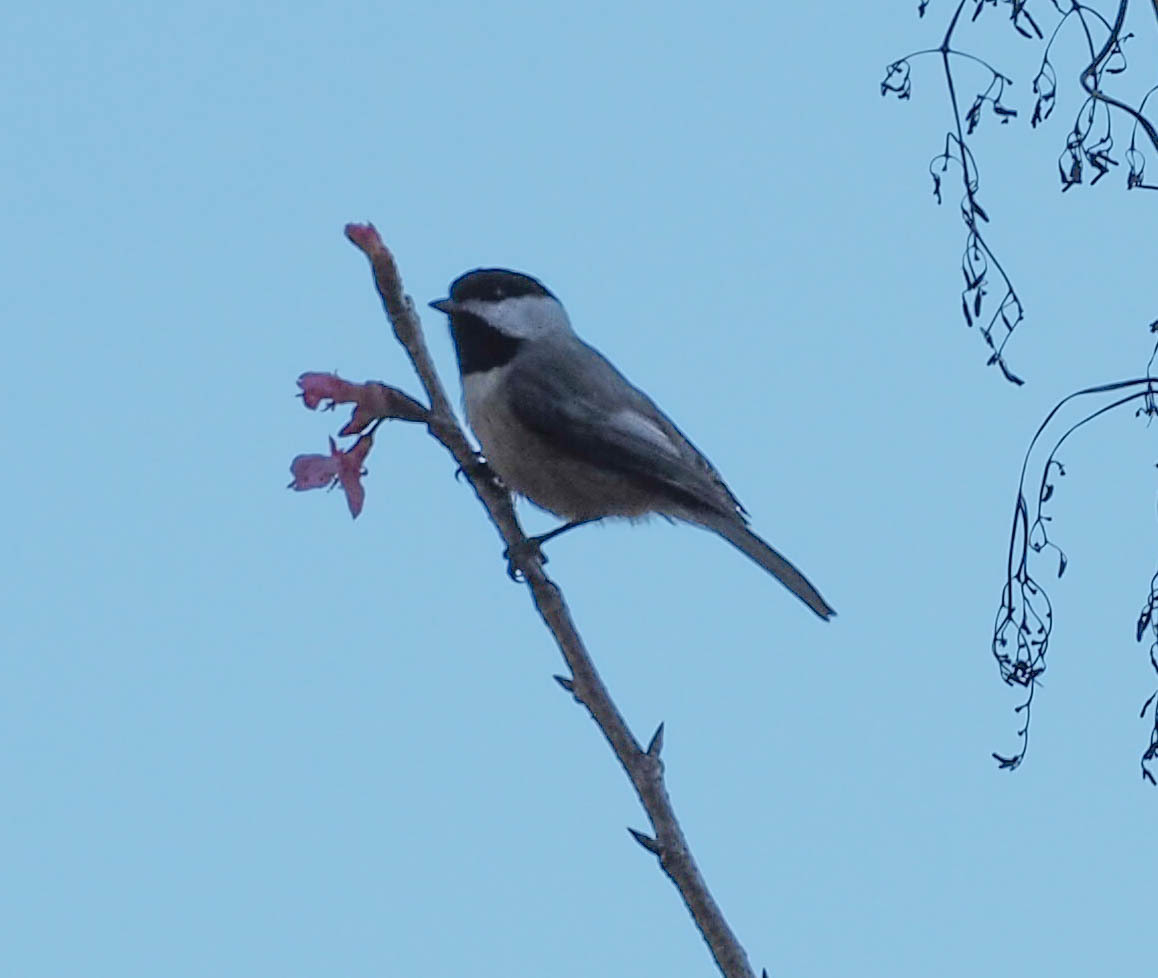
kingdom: Animalia
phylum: Chordata
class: Aves
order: Passeriformes
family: Paridae
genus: Poecile
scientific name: Poecile carolinensis
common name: Carolina chickadee
